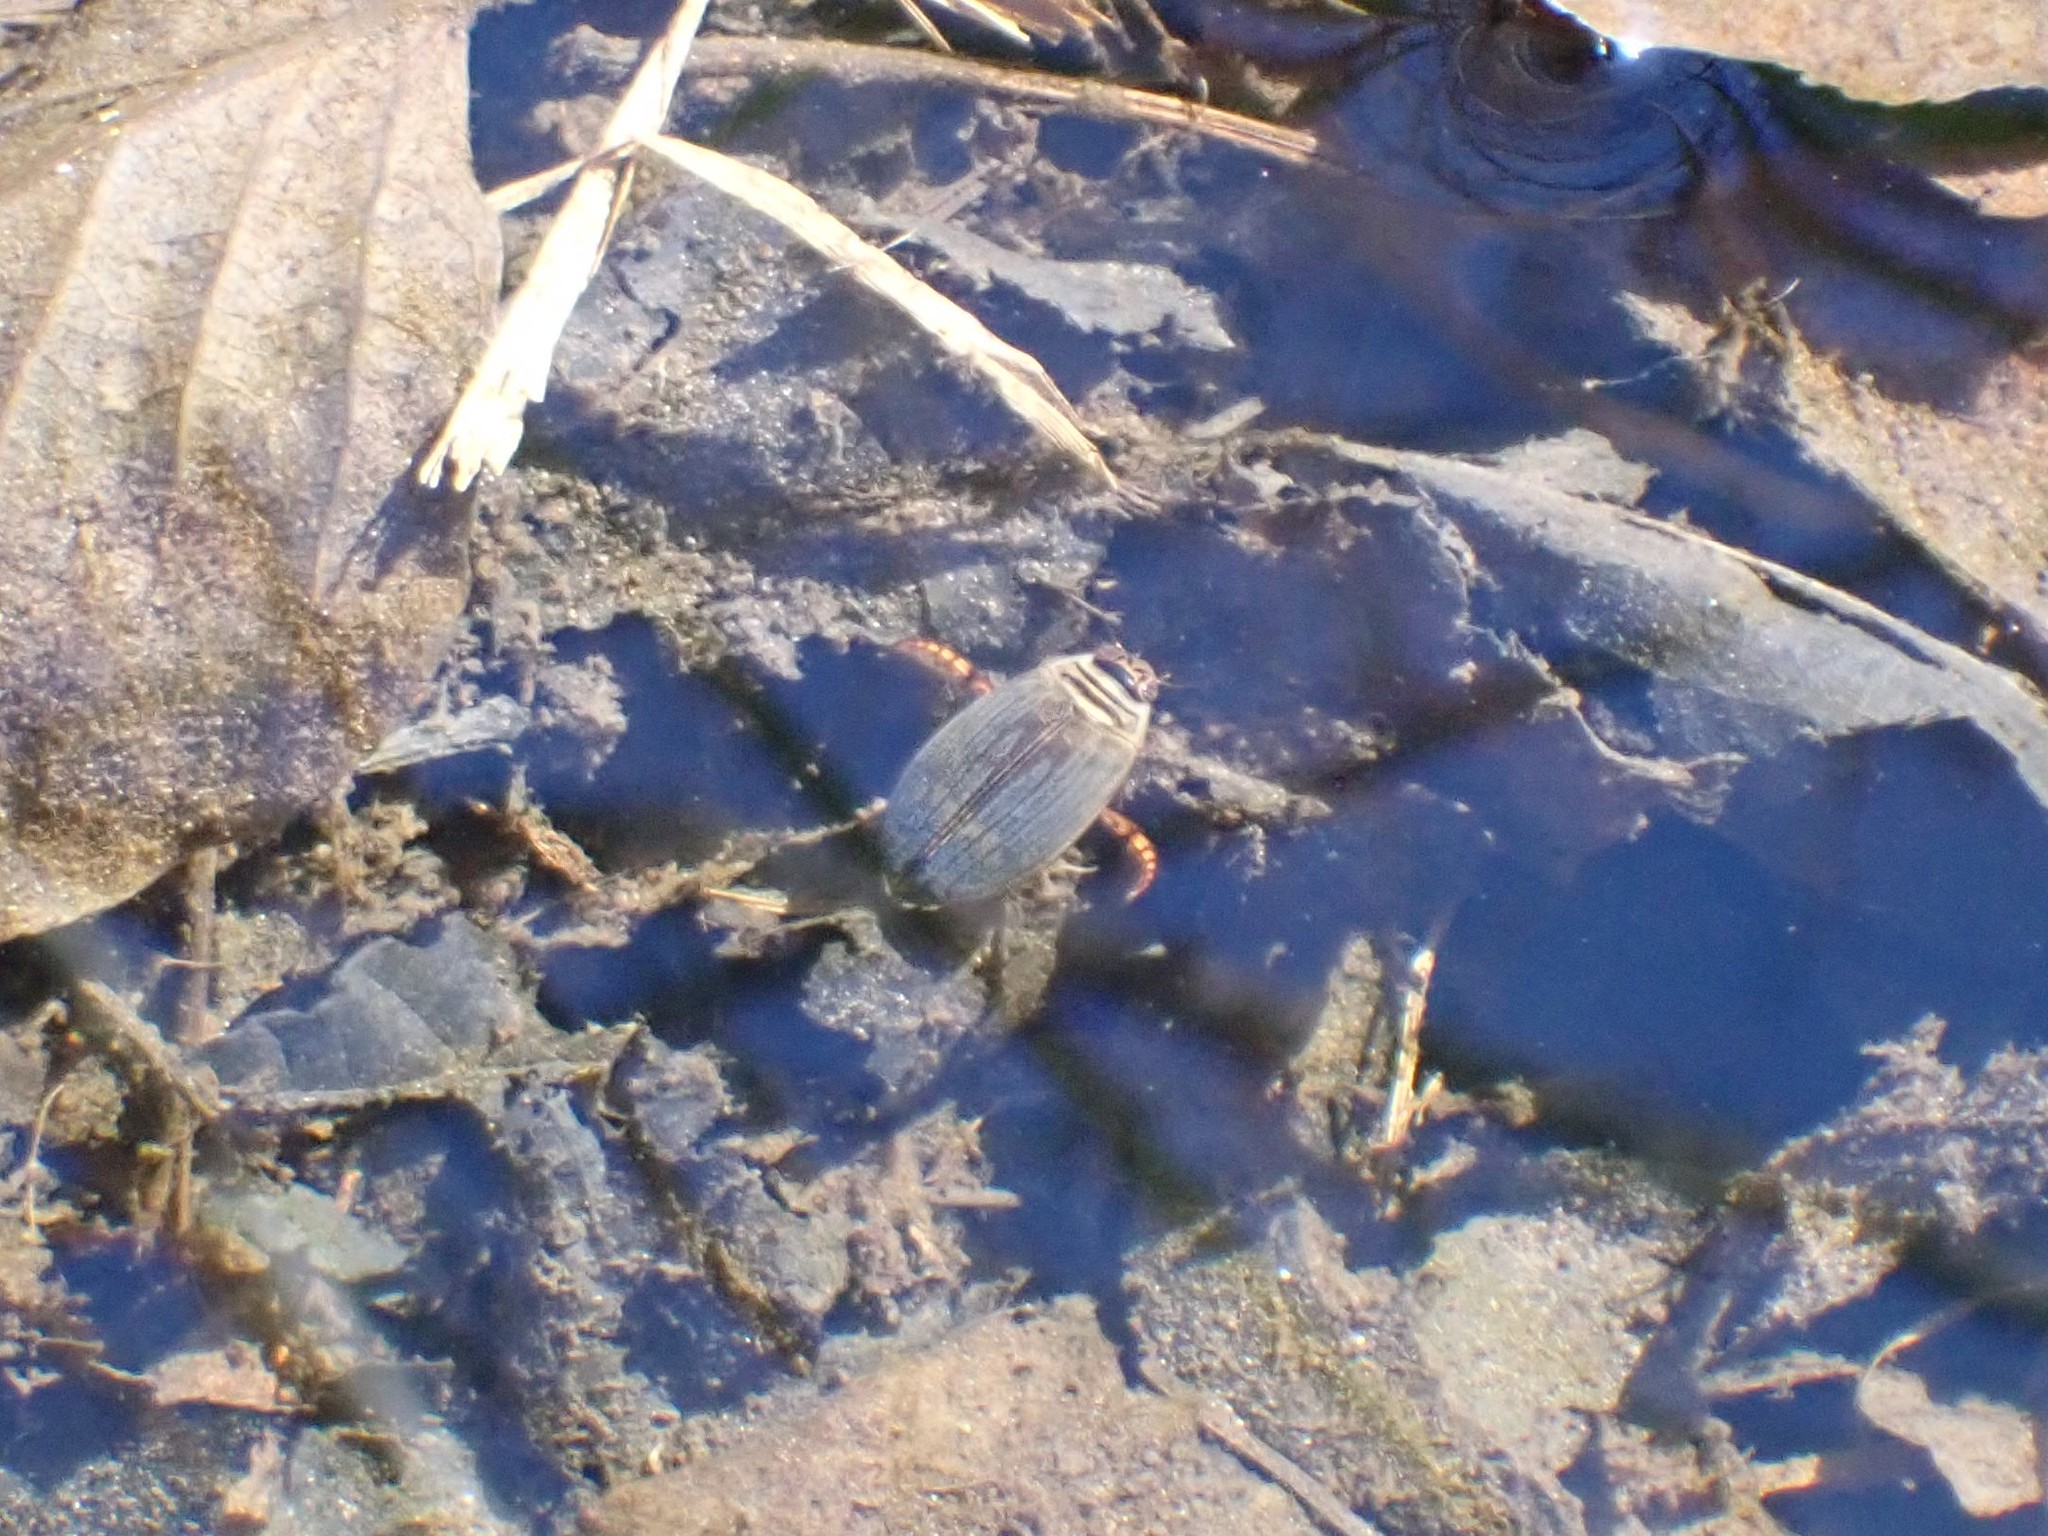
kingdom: Animalia
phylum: Arthropoda
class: Insecta
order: Coleoptera
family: Dytiscidae
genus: Acilius
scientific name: Acilius abbreviatus
